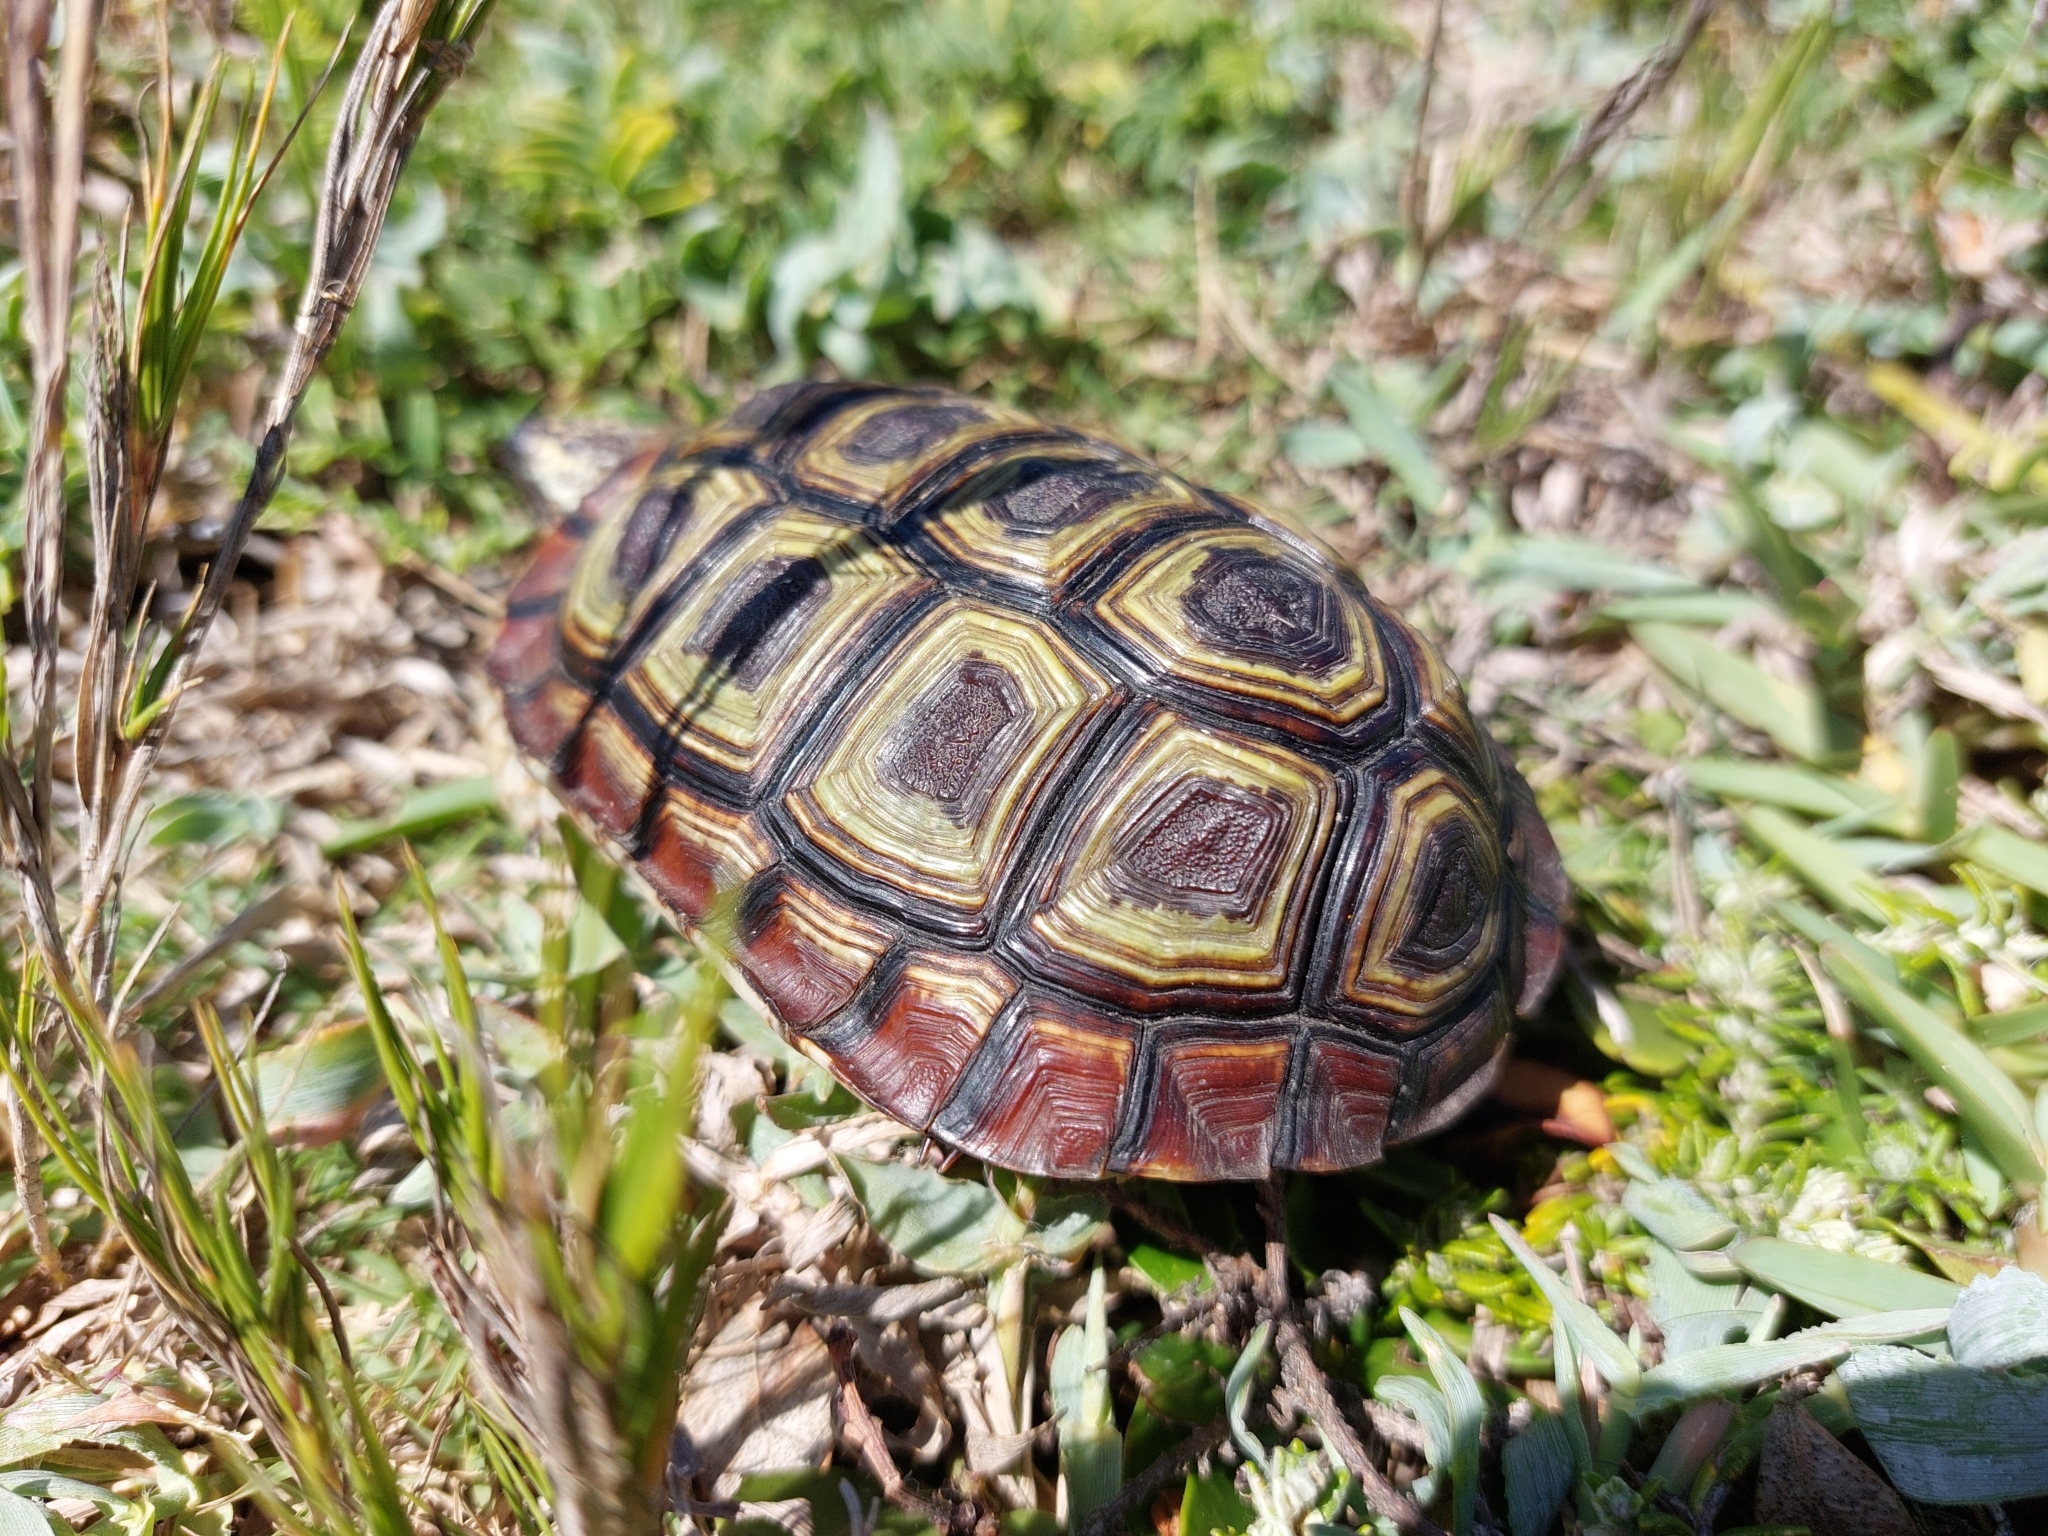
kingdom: Animalia
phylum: Chordata
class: Testudines
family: Testudinidae
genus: Homopus
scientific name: Homopus areolatus
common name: Parrot-beaked tortoise
